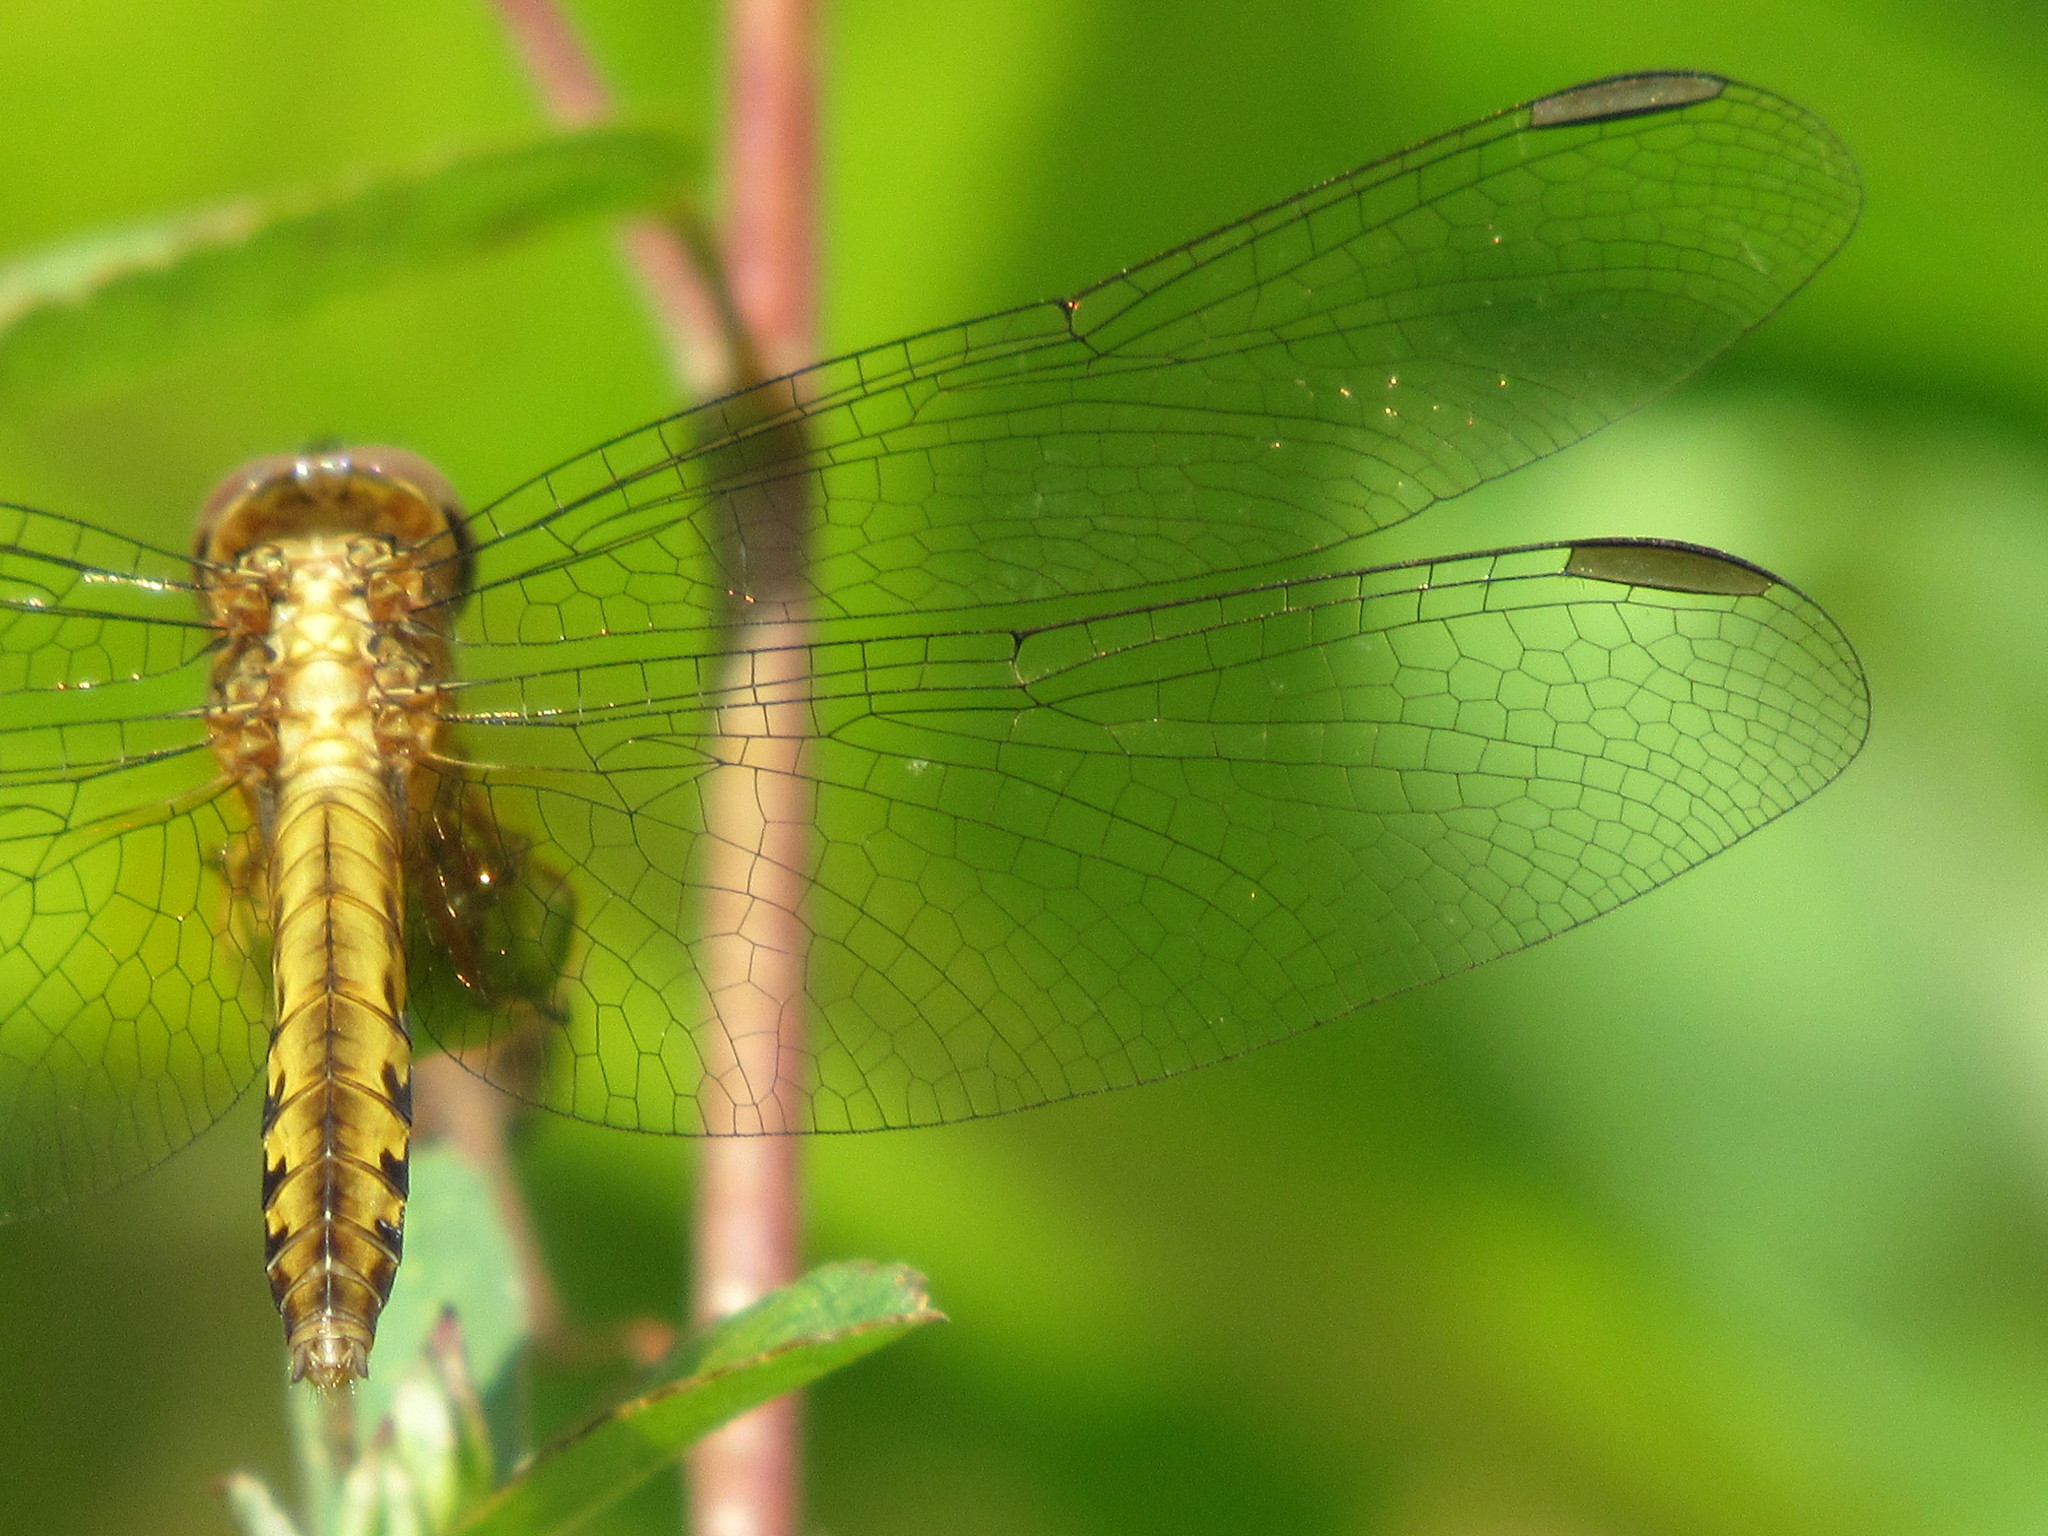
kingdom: Animalia
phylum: Arthropoda
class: Insecta
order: Odonata
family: Libellulidae
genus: Pantala
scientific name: Pantala flavescens
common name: Wandering glider
